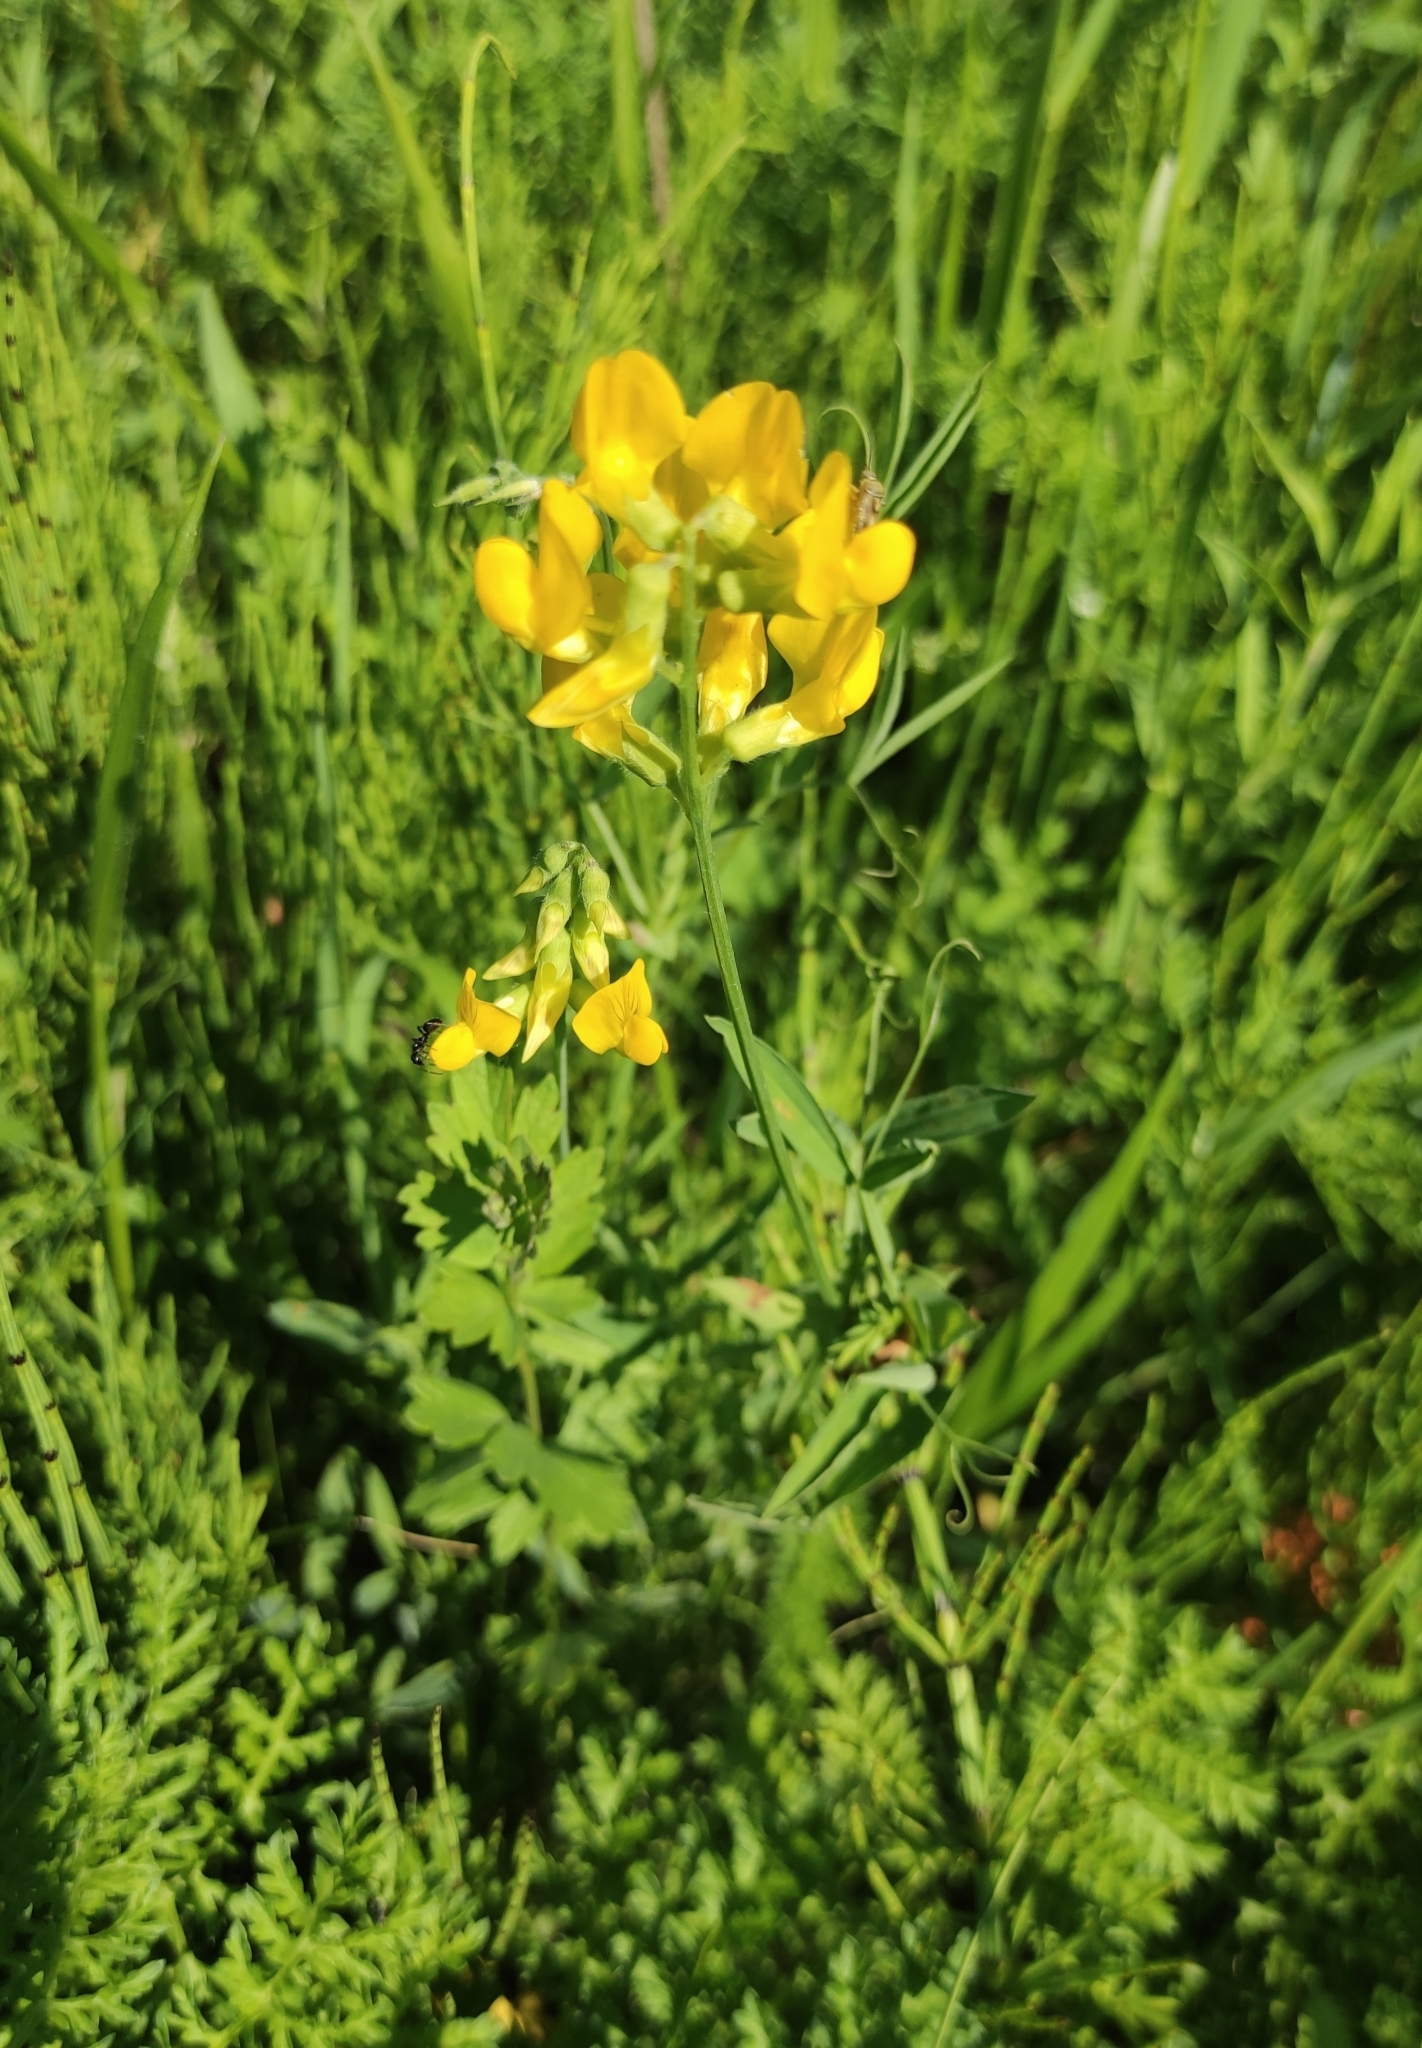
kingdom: Plantae
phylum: Tracheophyta
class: Magnoliopsida
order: Fabales
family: Fabaceae
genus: Lathyrus
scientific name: Lathyrus pratensis
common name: Meadow vetchling
